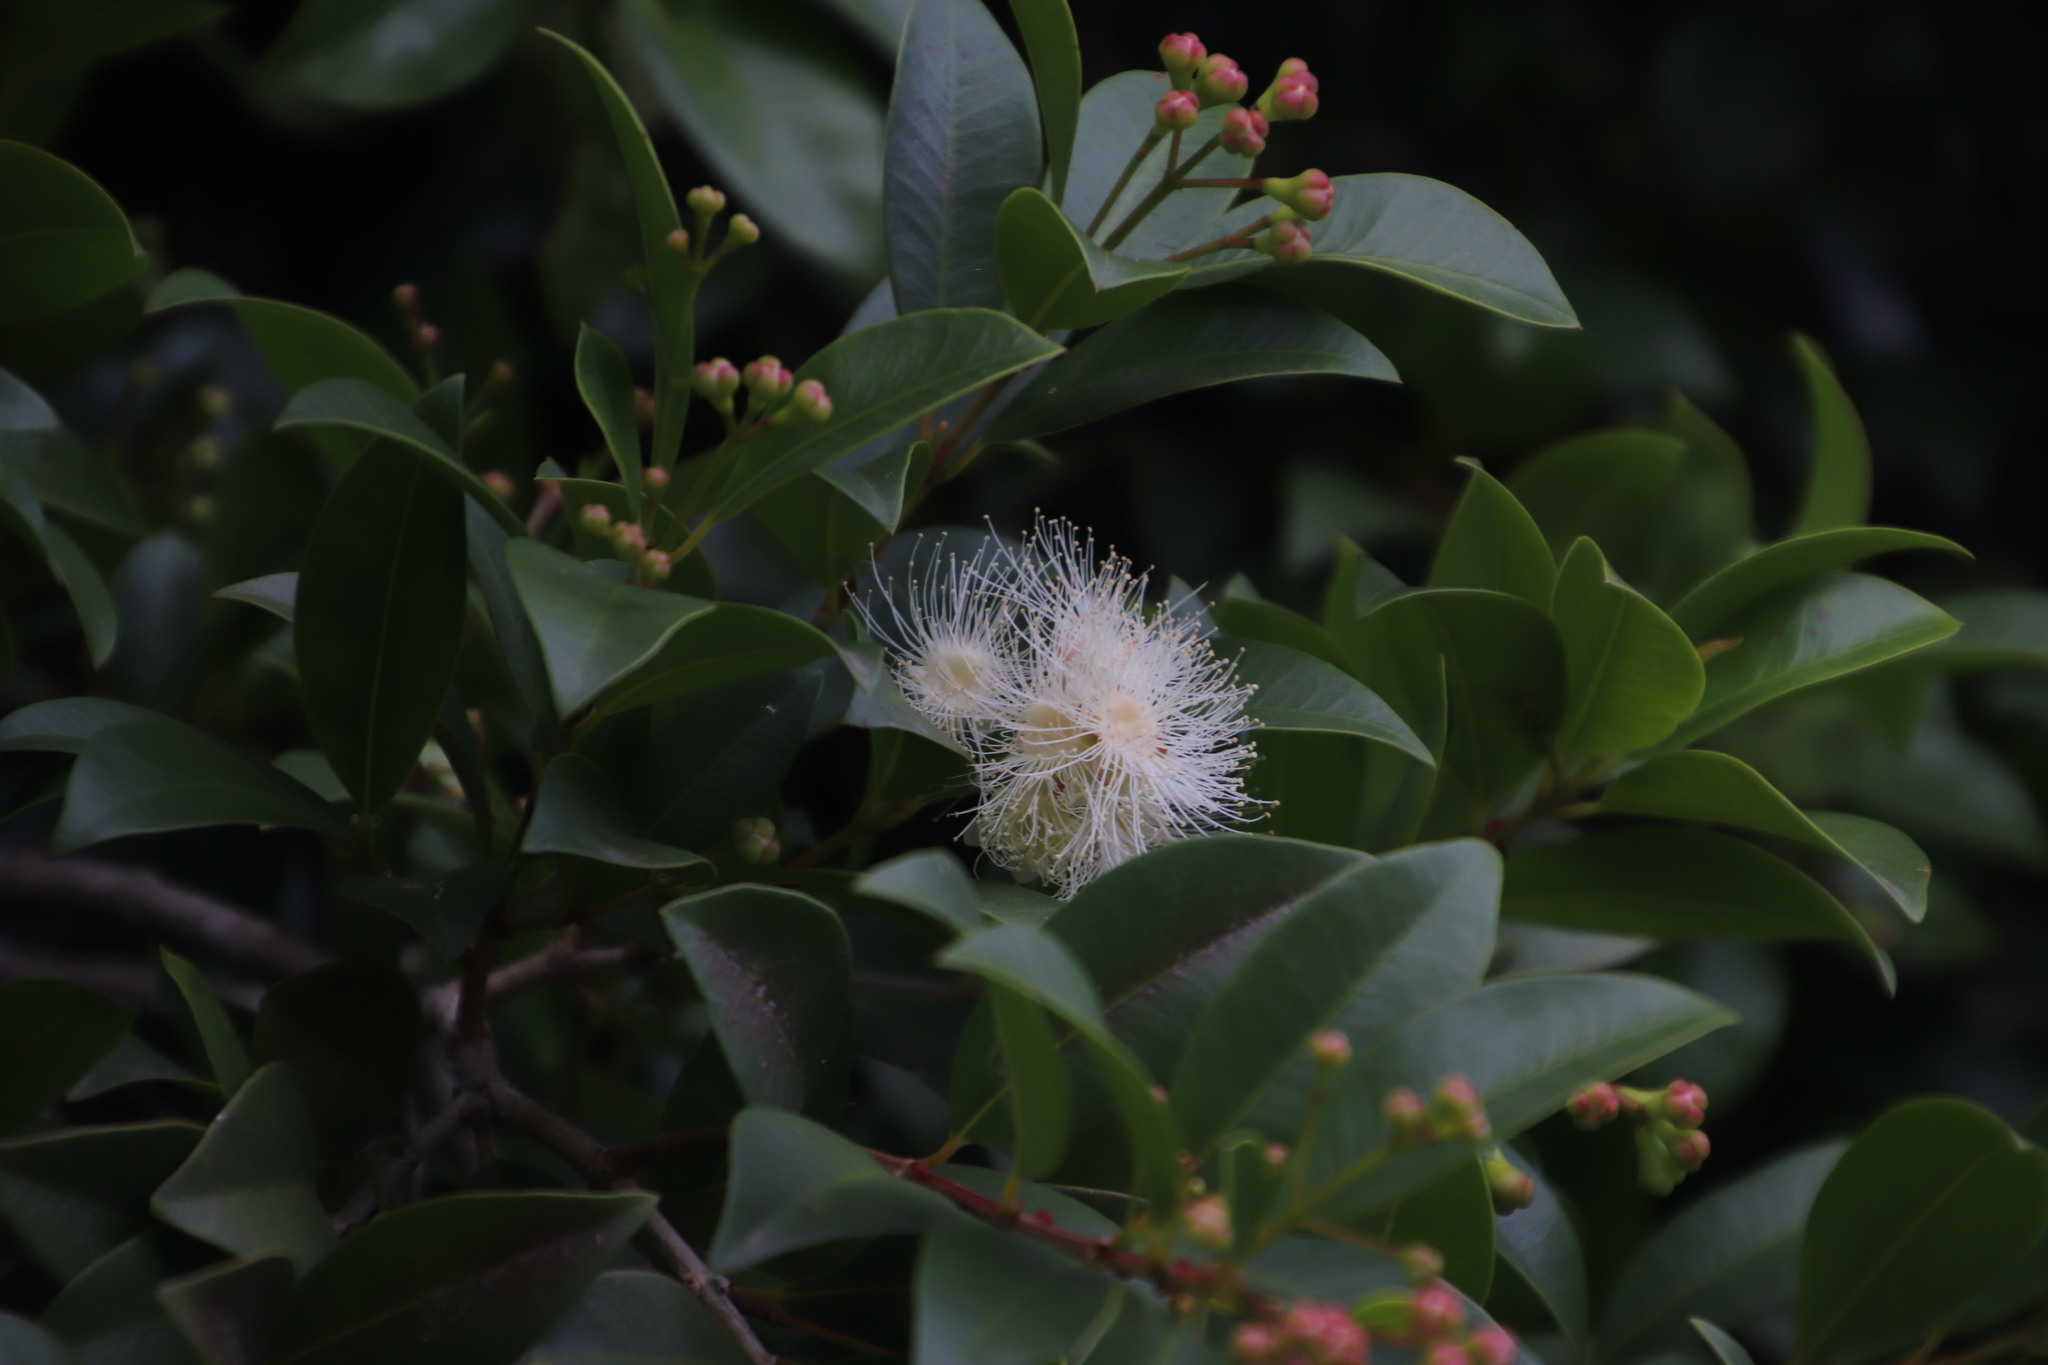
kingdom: Plantae
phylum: Tracheophyta
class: Magnoliopsida
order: Myrtales
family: Myrtaceae
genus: Syzygium
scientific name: Syzygium australe
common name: Australian brush-cherry
